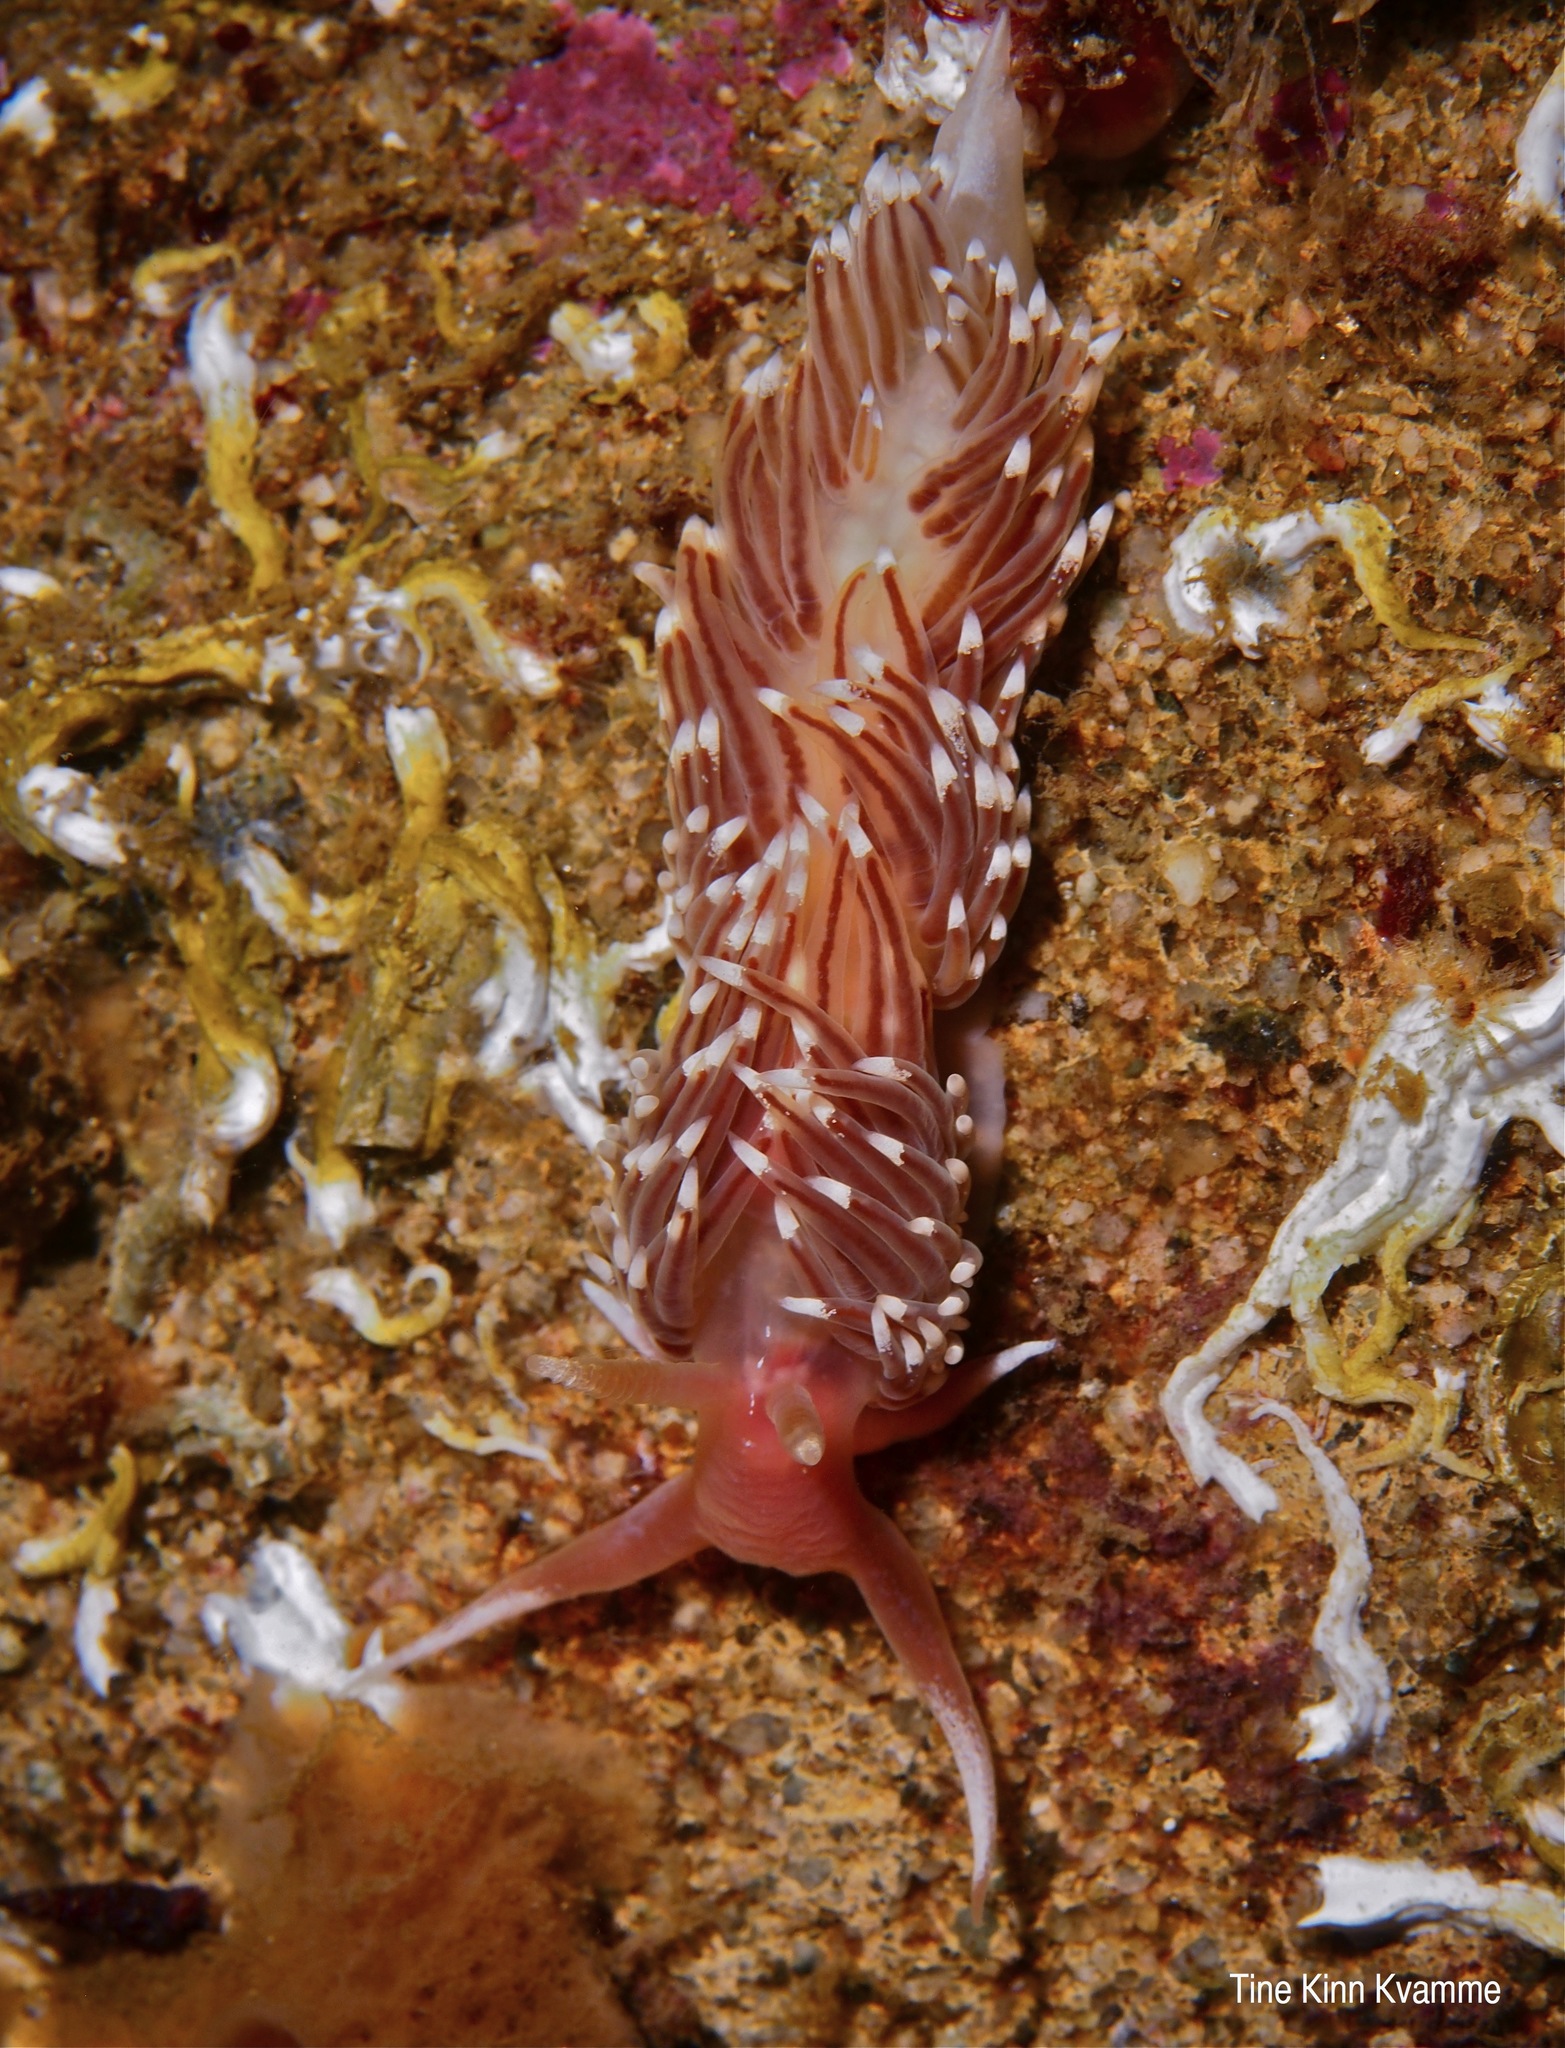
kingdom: Animalia
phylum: Mollusca
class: Gastropoda
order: Nudibranchia
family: Facelinidae
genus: Facelina
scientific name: Facelina bostoniensis
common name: Boston facelina
